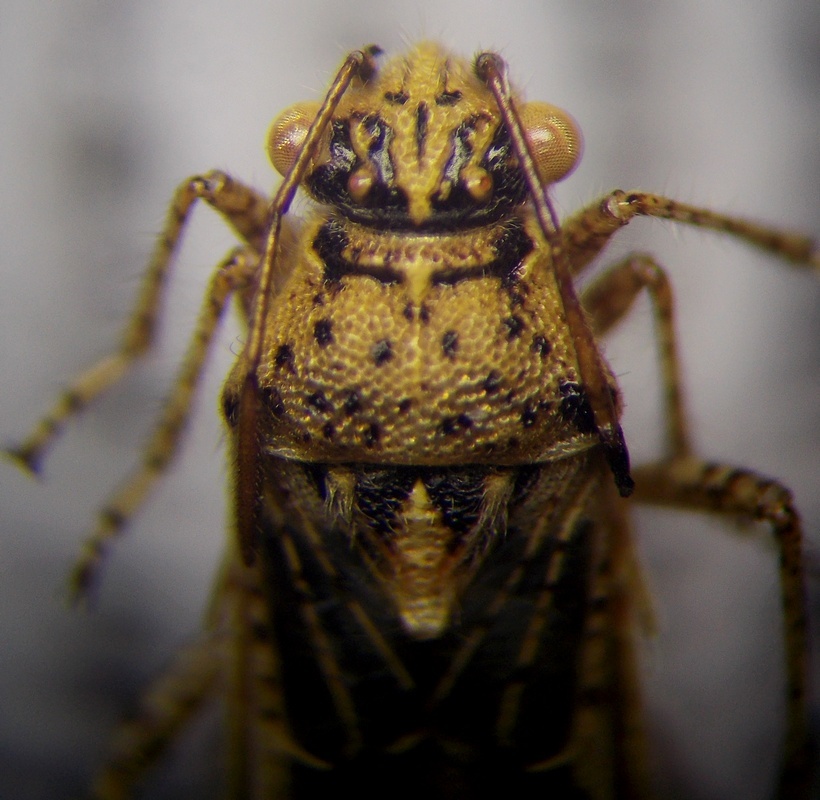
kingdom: Animalia
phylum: Arthropoda
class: Insecta
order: Hemiptera
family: Rhopalidae
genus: Brachycarenus
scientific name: Brachycarenus tigrinus
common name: Scentless plant bug
